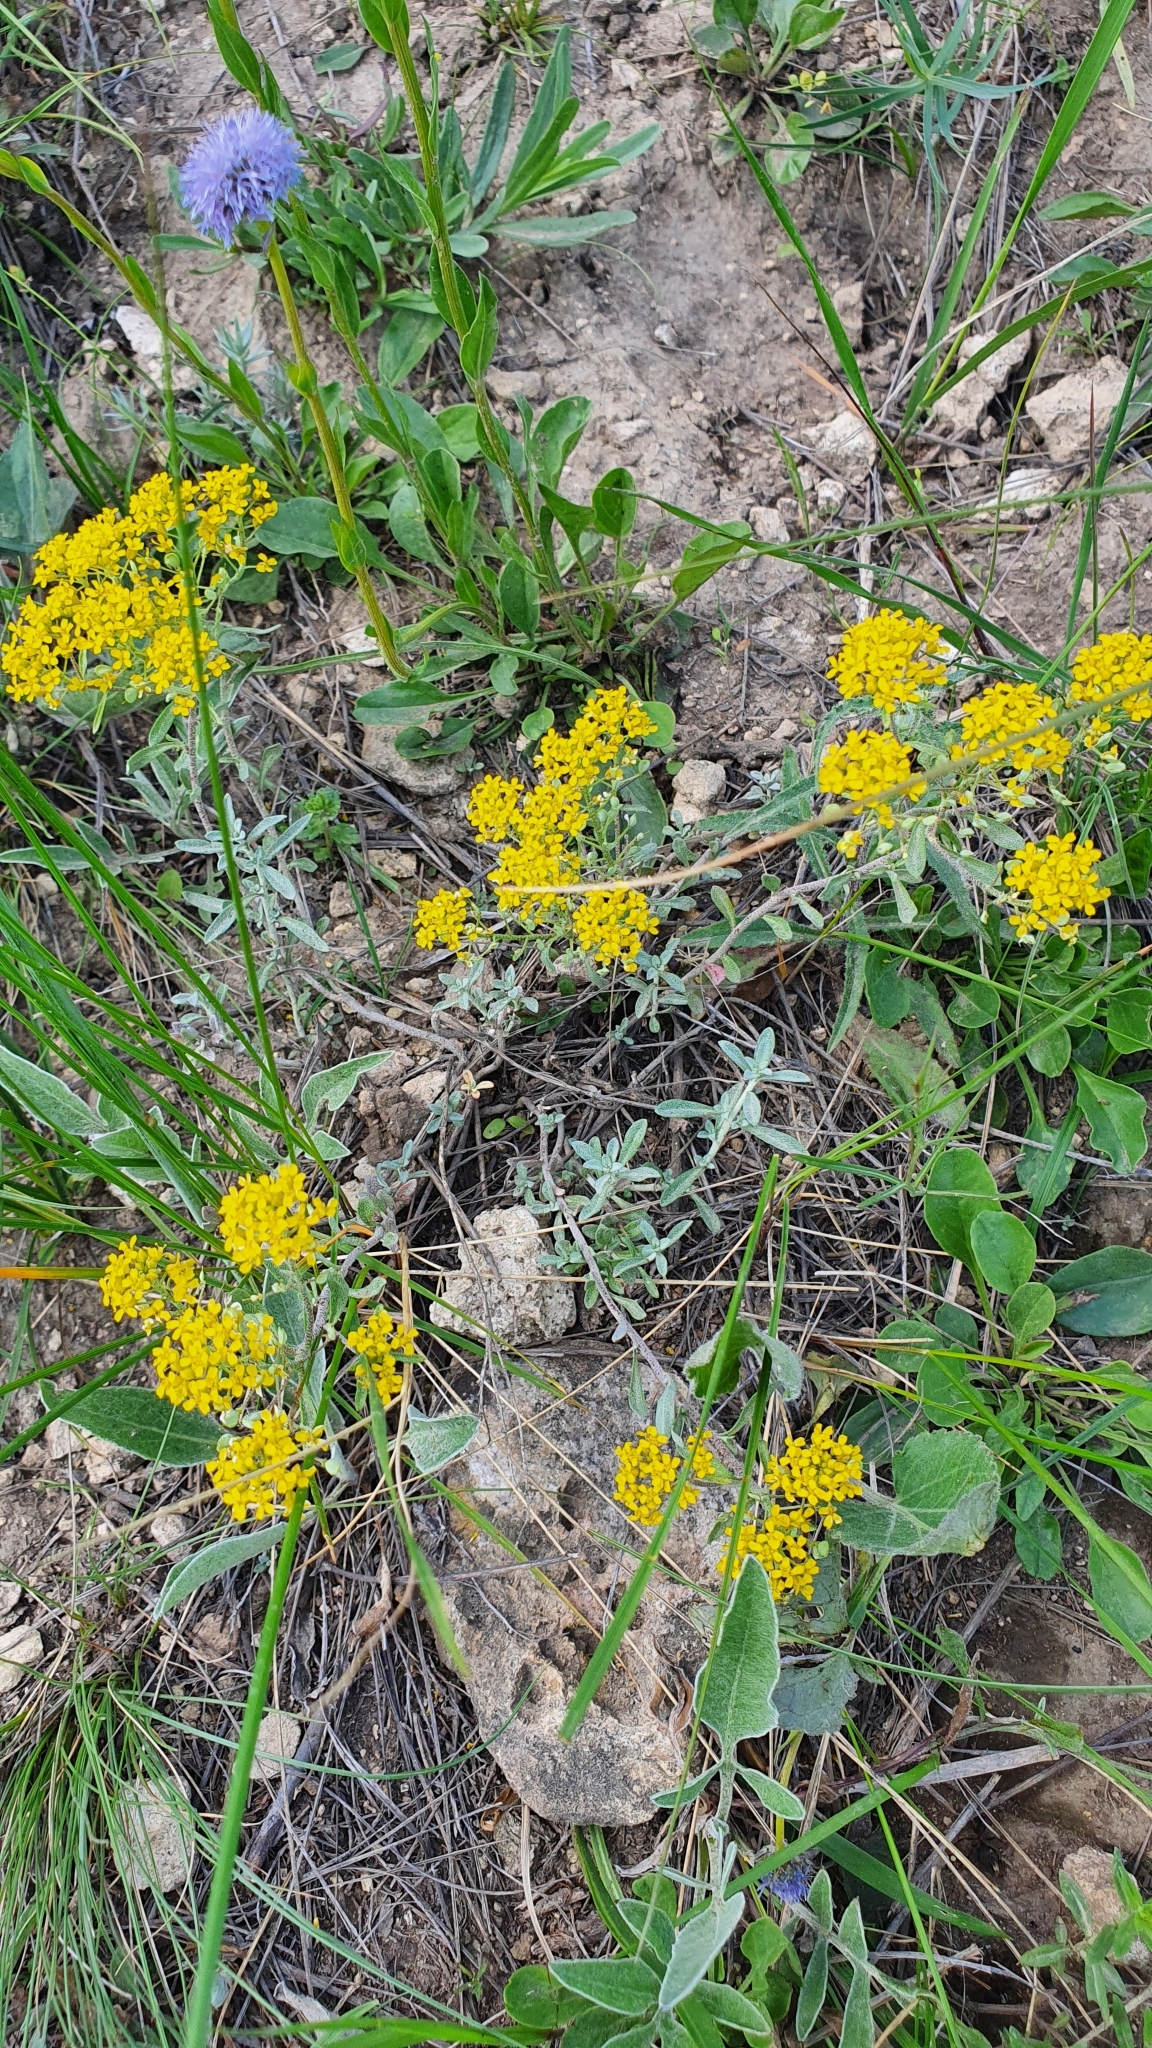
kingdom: Plantae
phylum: Tracheophyta
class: Magnoliopsida
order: Brassicales
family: Brassicaceae
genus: Odontarrhena
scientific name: Odontarrhena tortuosa
